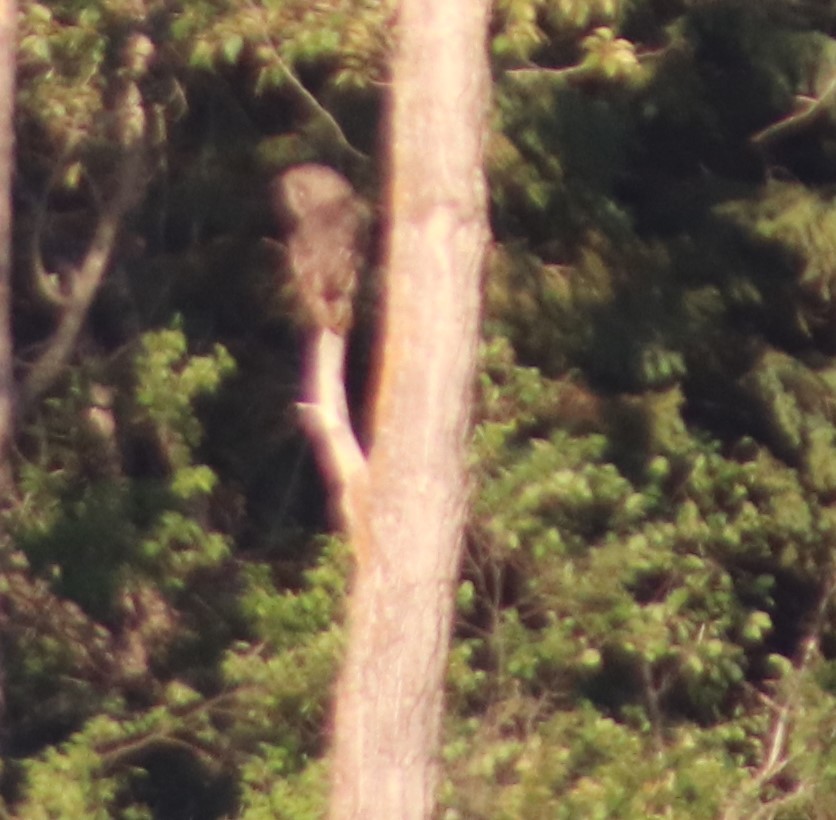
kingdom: Animalia
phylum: Chordata
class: Aves
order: Strigiformes
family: Strigidae
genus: Strix
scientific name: Strix nebulosa
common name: Great grey owl
